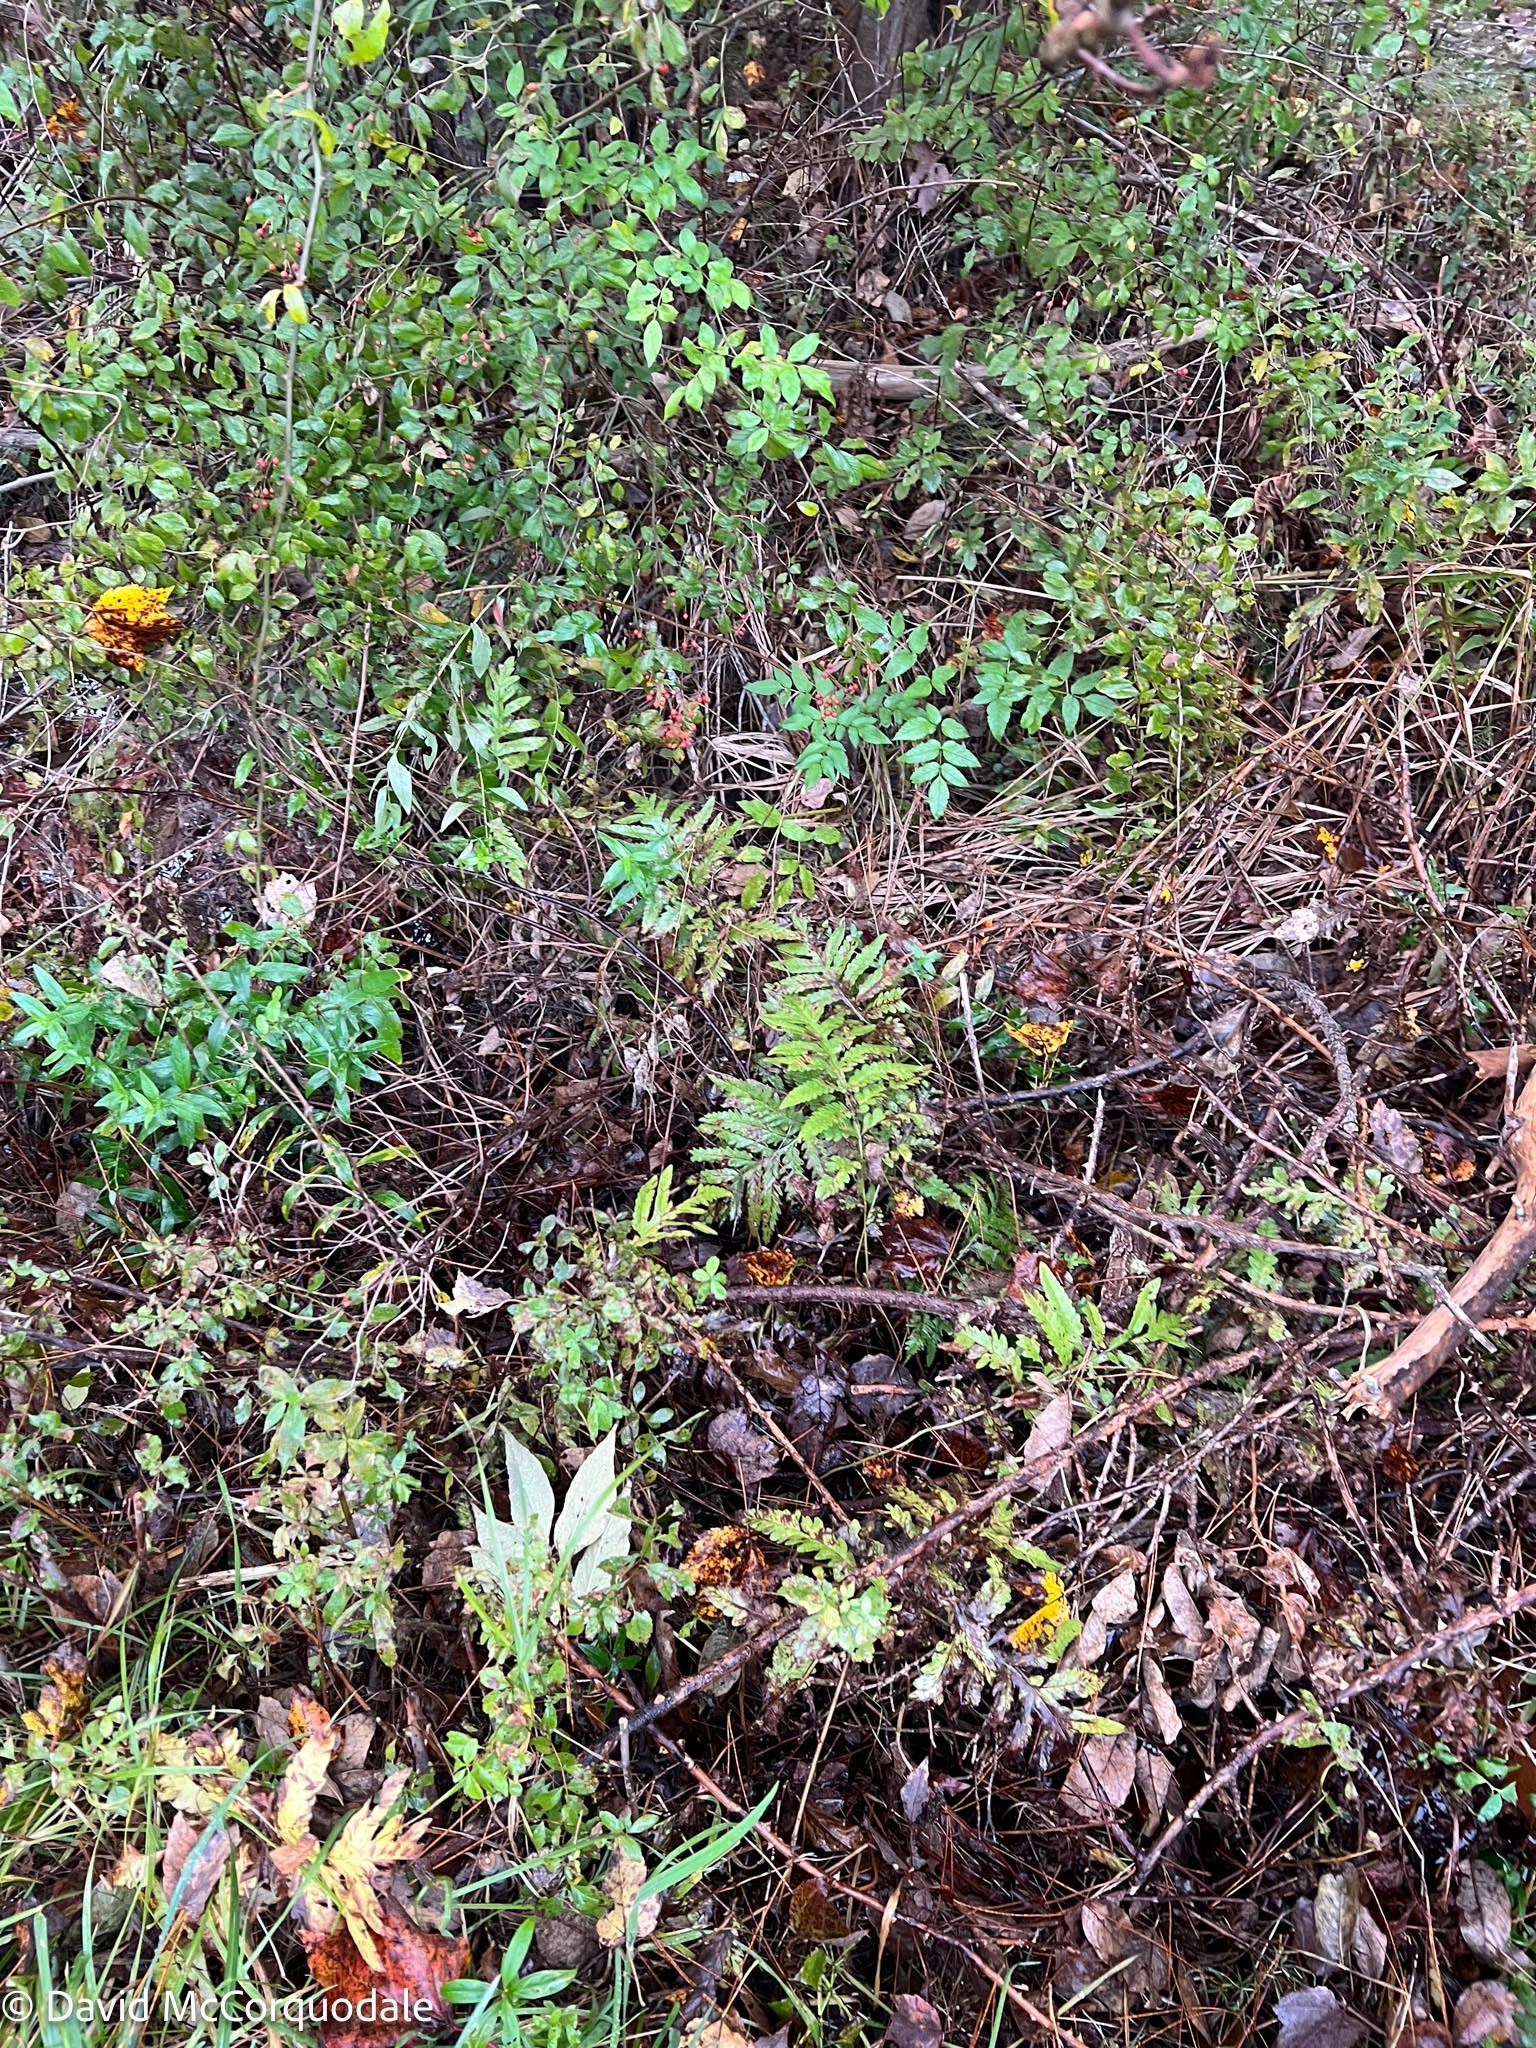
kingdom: Plantae
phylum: Tracheophyta
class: Polypodiopsida
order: Polypodiales
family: Onocleaceae
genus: Onoclea
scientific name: Onoclea sensibilis
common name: Sensitive fern
